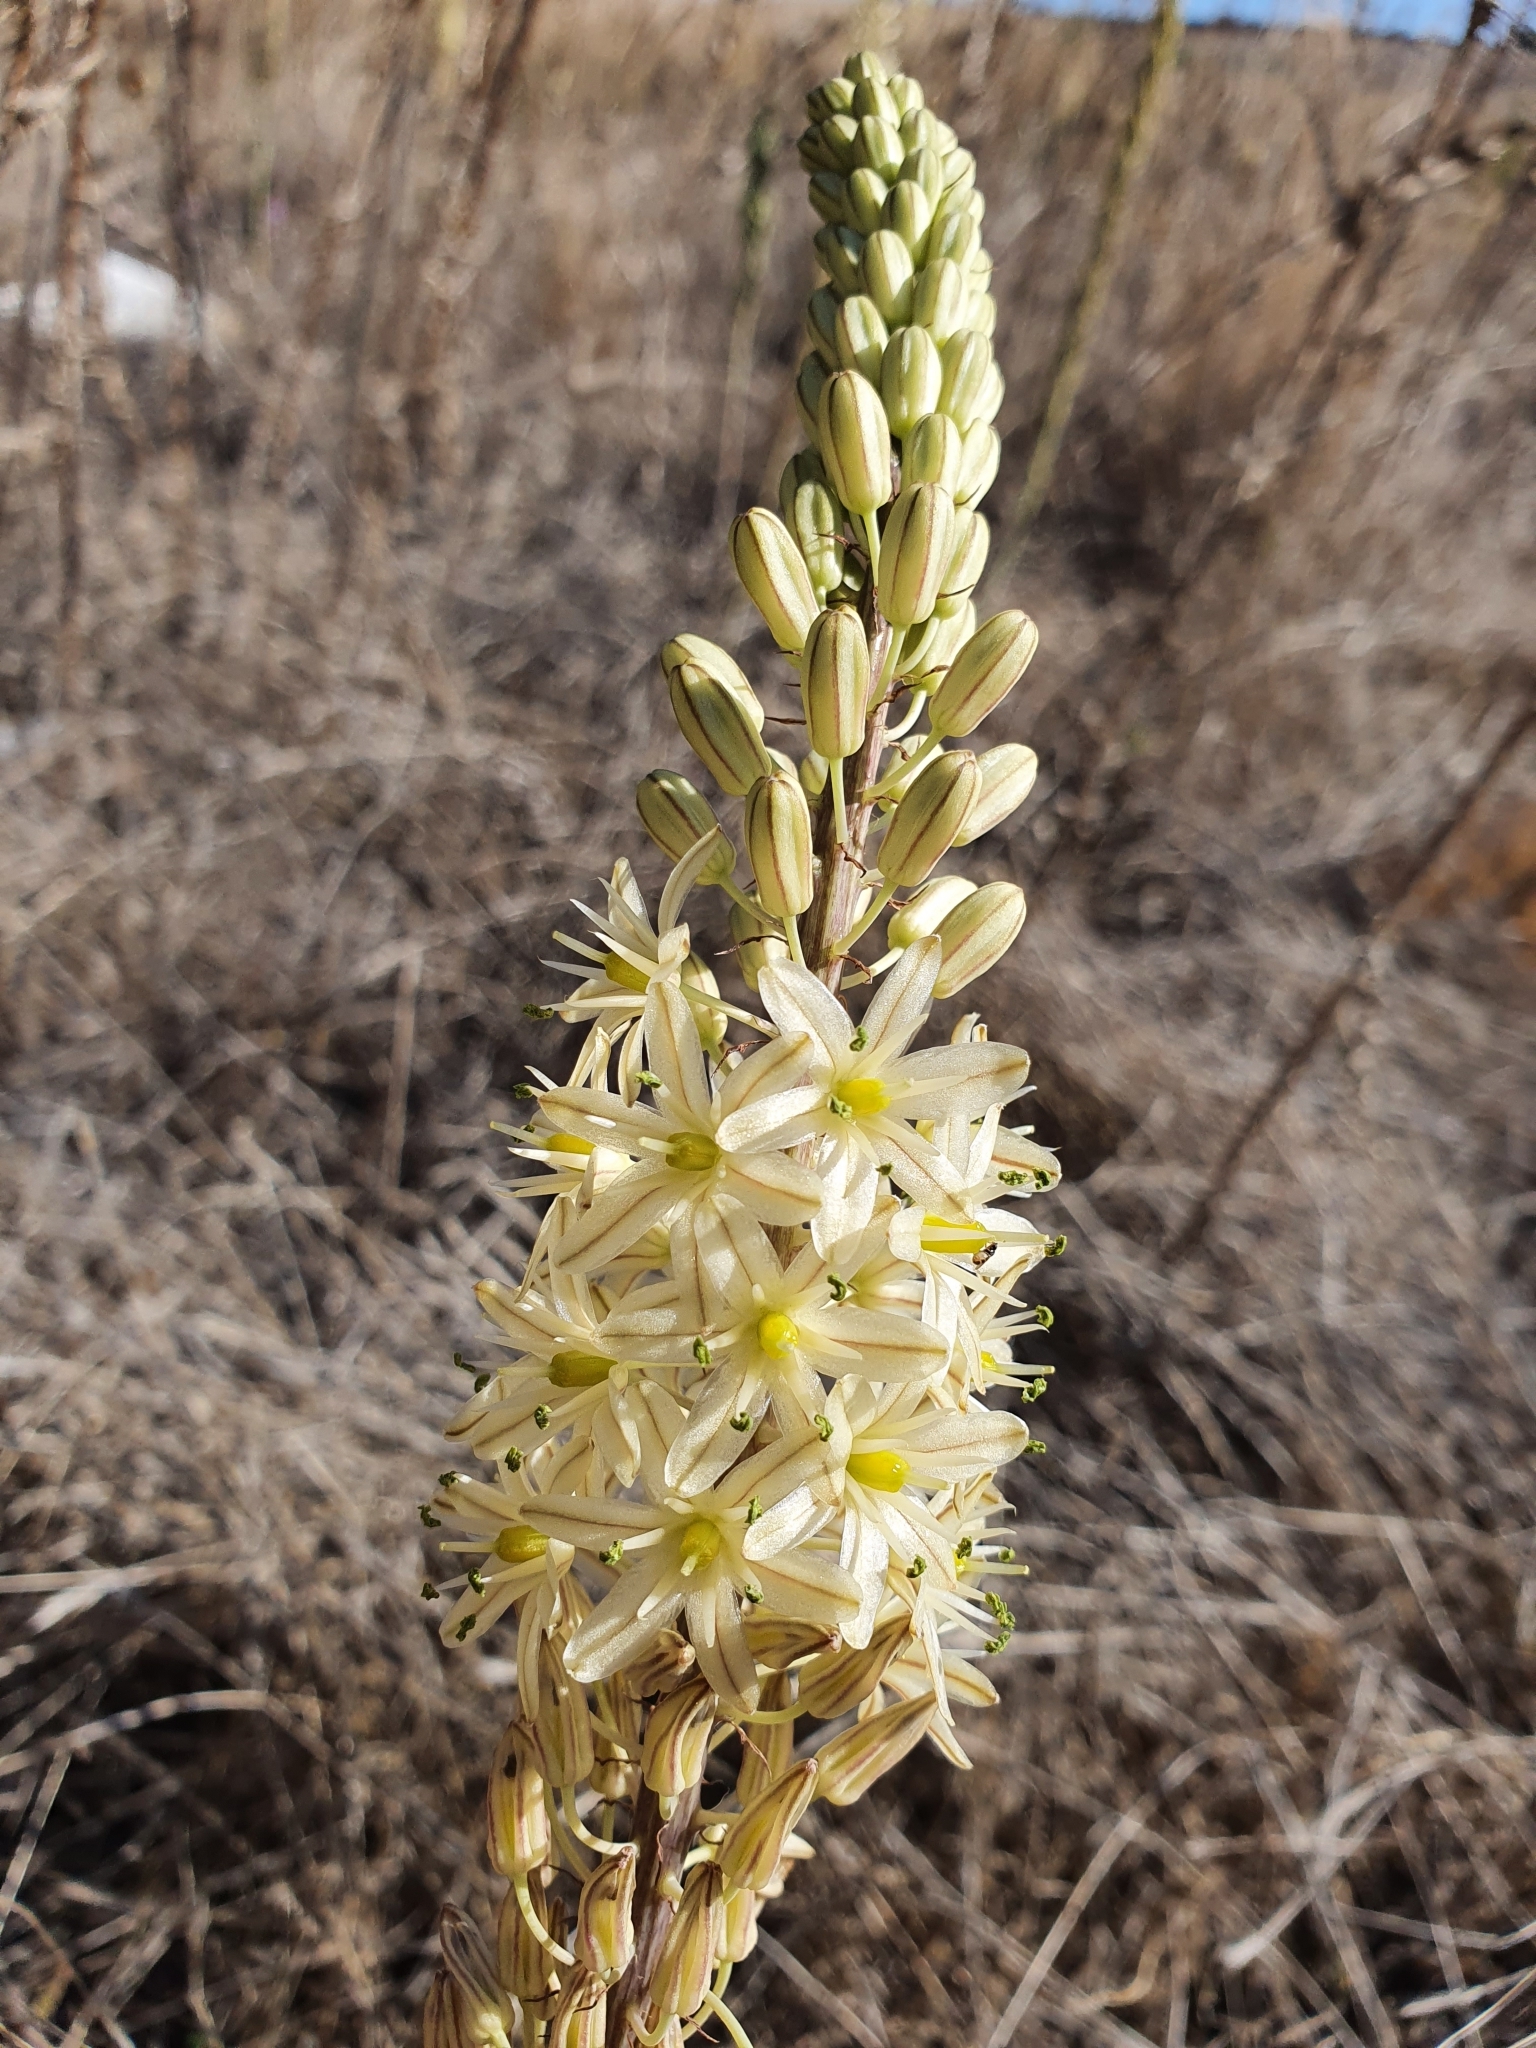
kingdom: Plantae
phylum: Tracheophyta
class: Liliopsida
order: Asparagales
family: Asparagaceae
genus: Drimia
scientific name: Drimia anthericoides
